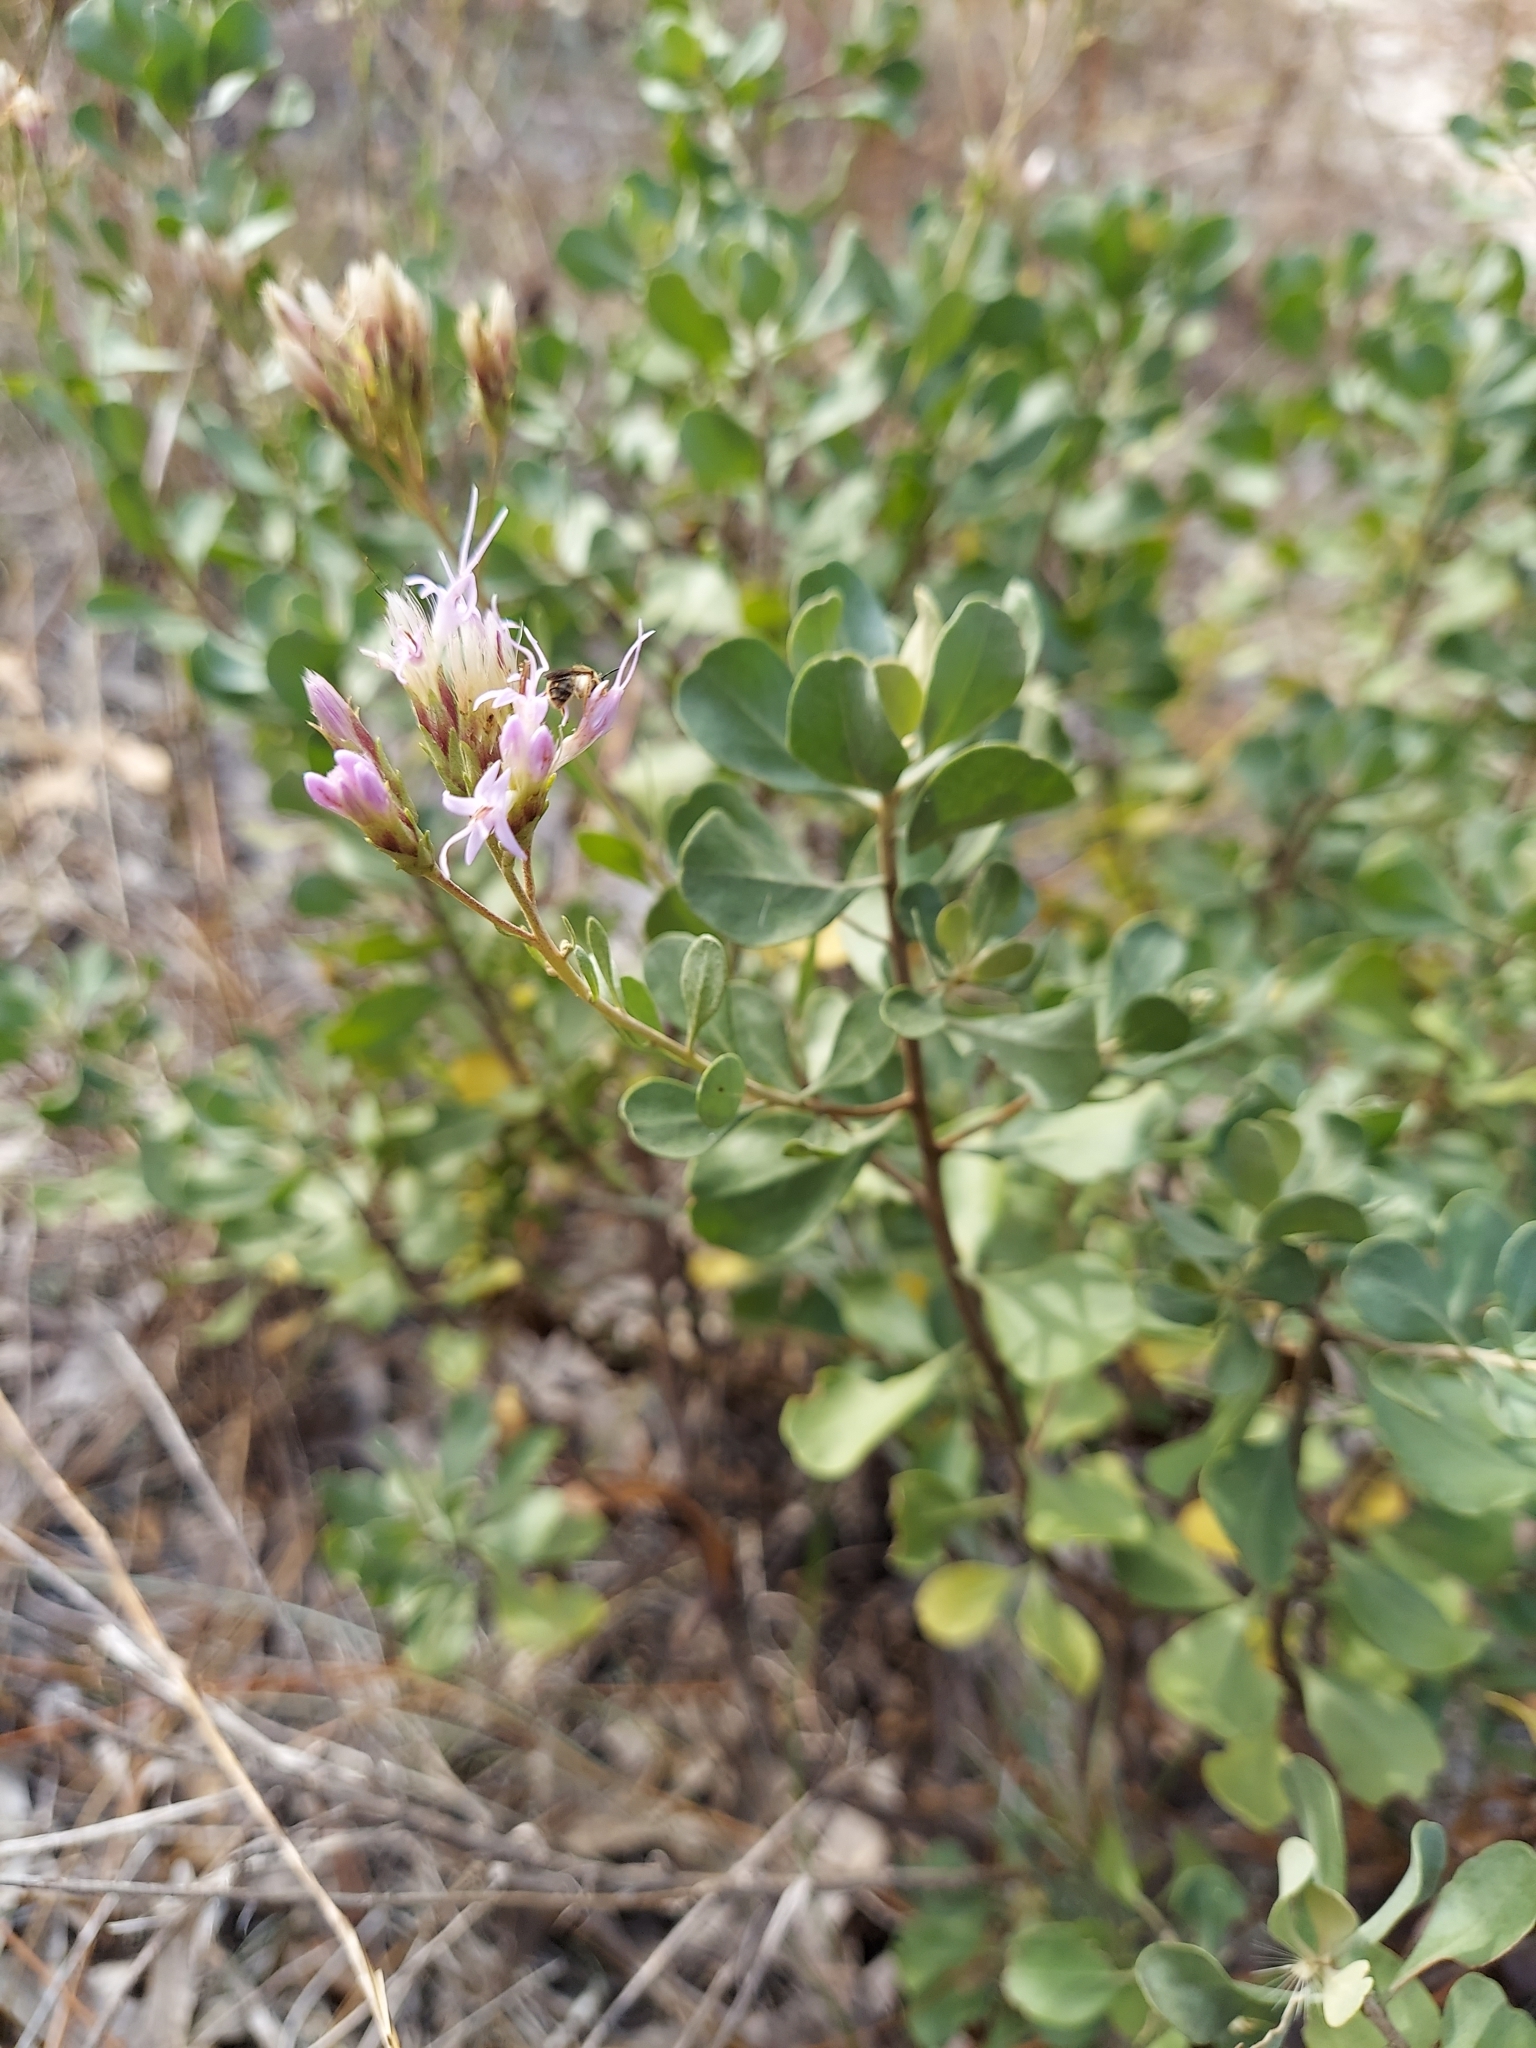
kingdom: Plantae
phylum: Tracheophyta
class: Magnoliopsida
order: Asterales
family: Asteraceae
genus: Garberia
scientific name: Garberia heterophylla
